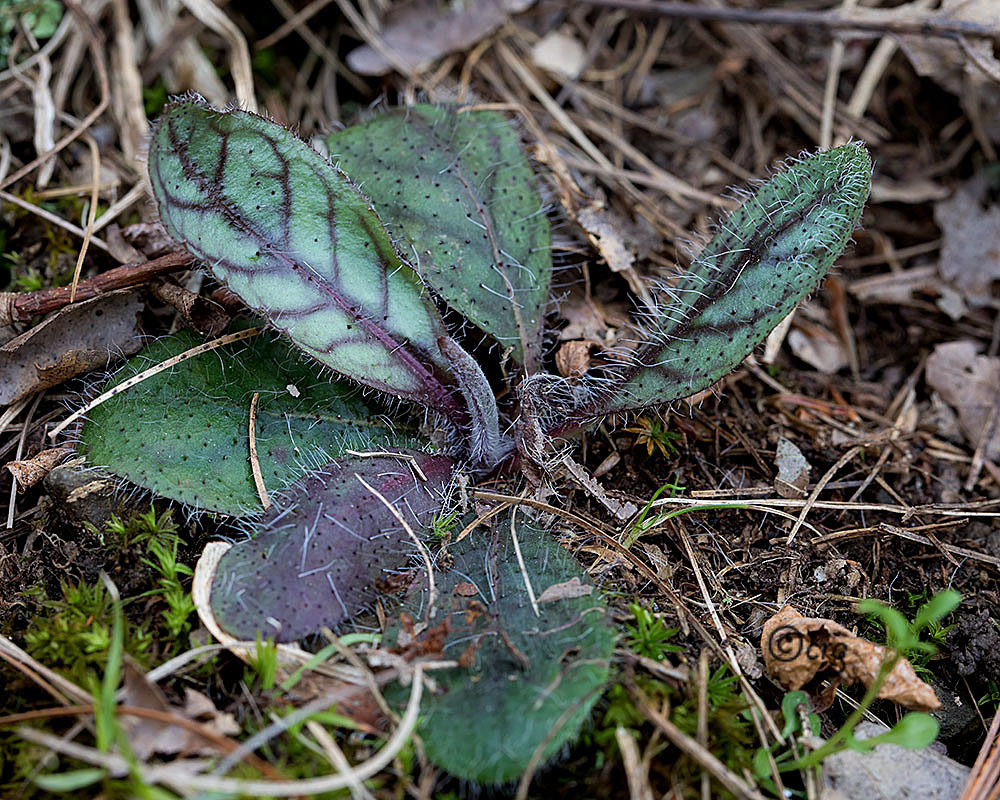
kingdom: Plantae
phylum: Tracheophyta
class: Magnoliopsida
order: Asterales
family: Asteraceae
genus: Hieracium
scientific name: Hieracium venosum
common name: Rattlesnake hawkweed
